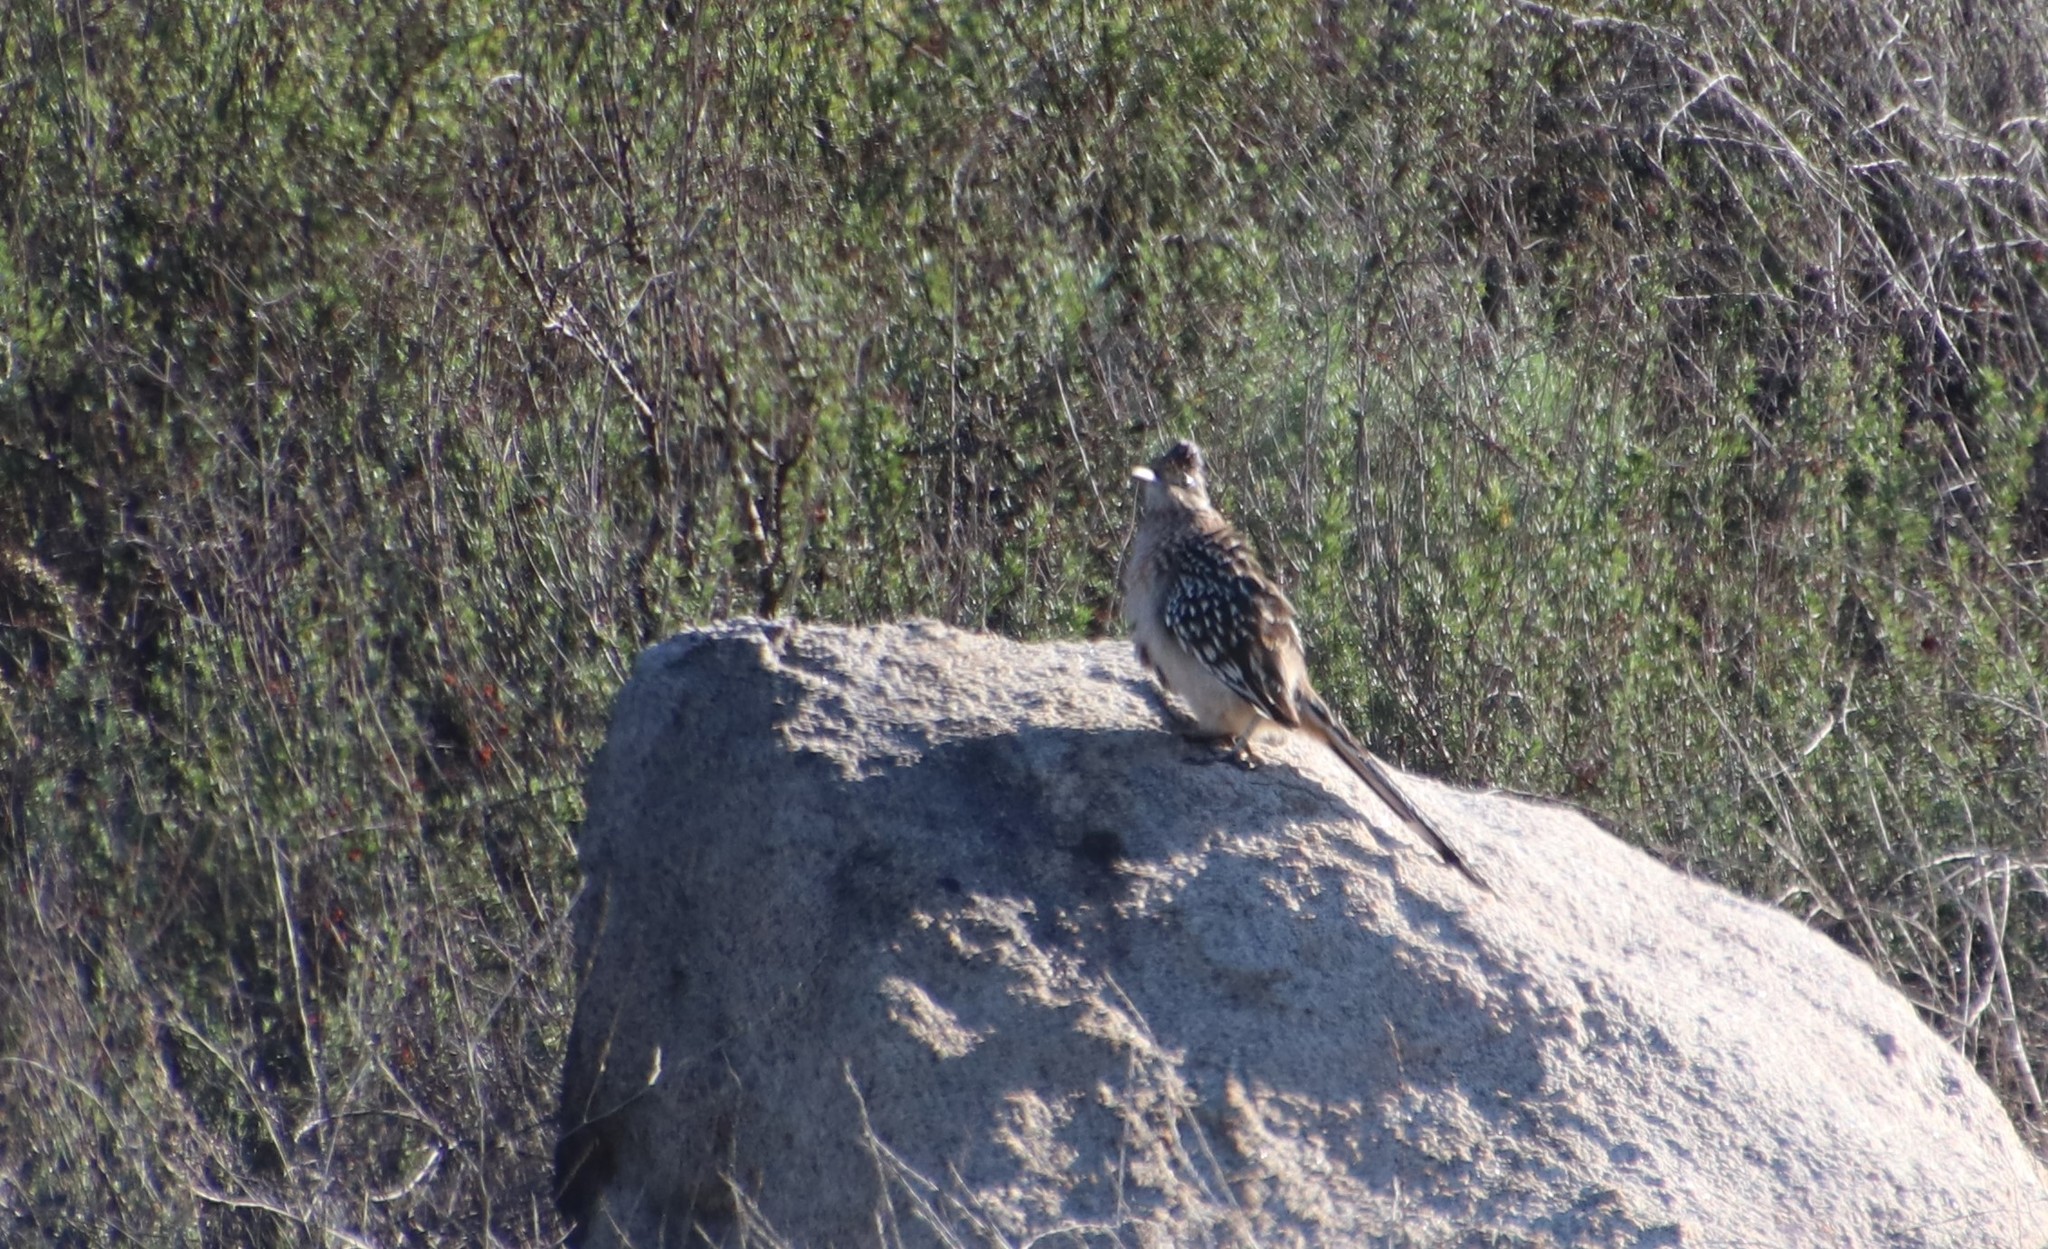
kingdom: Animalia
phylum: Chordata
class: Aves
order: Cuculiformes
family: Cuculidae
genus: Geococcyx
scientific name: Geococcyx californianus
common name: Greater roadrunner
